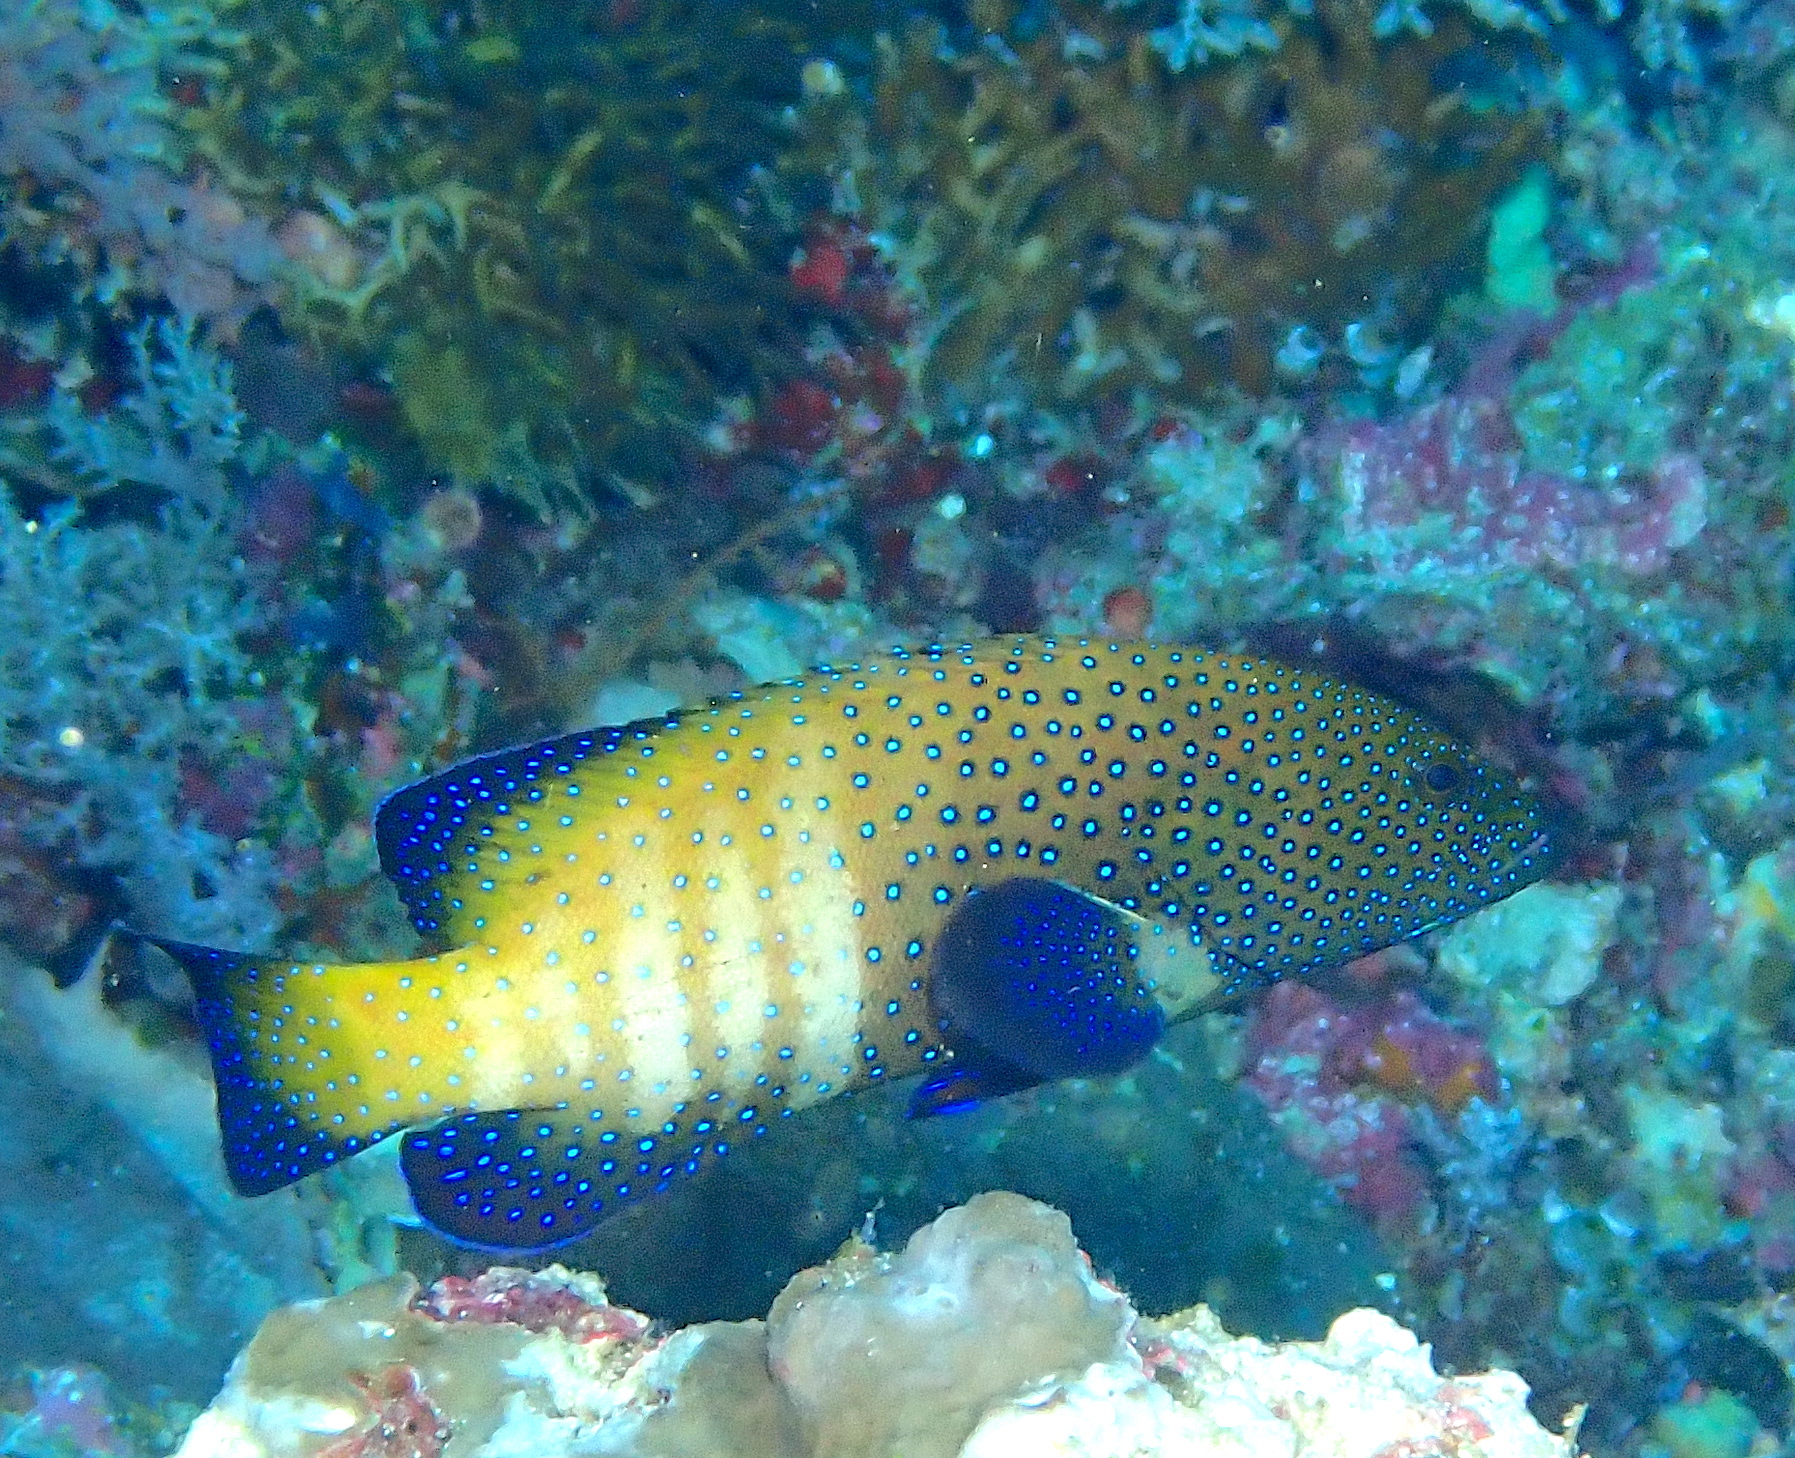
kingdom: Animalia
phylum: Chordata
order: Perciformes
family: Serranidae
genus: Cephalopholis
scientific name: Cephalopholis argus
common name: Peacock grouper
